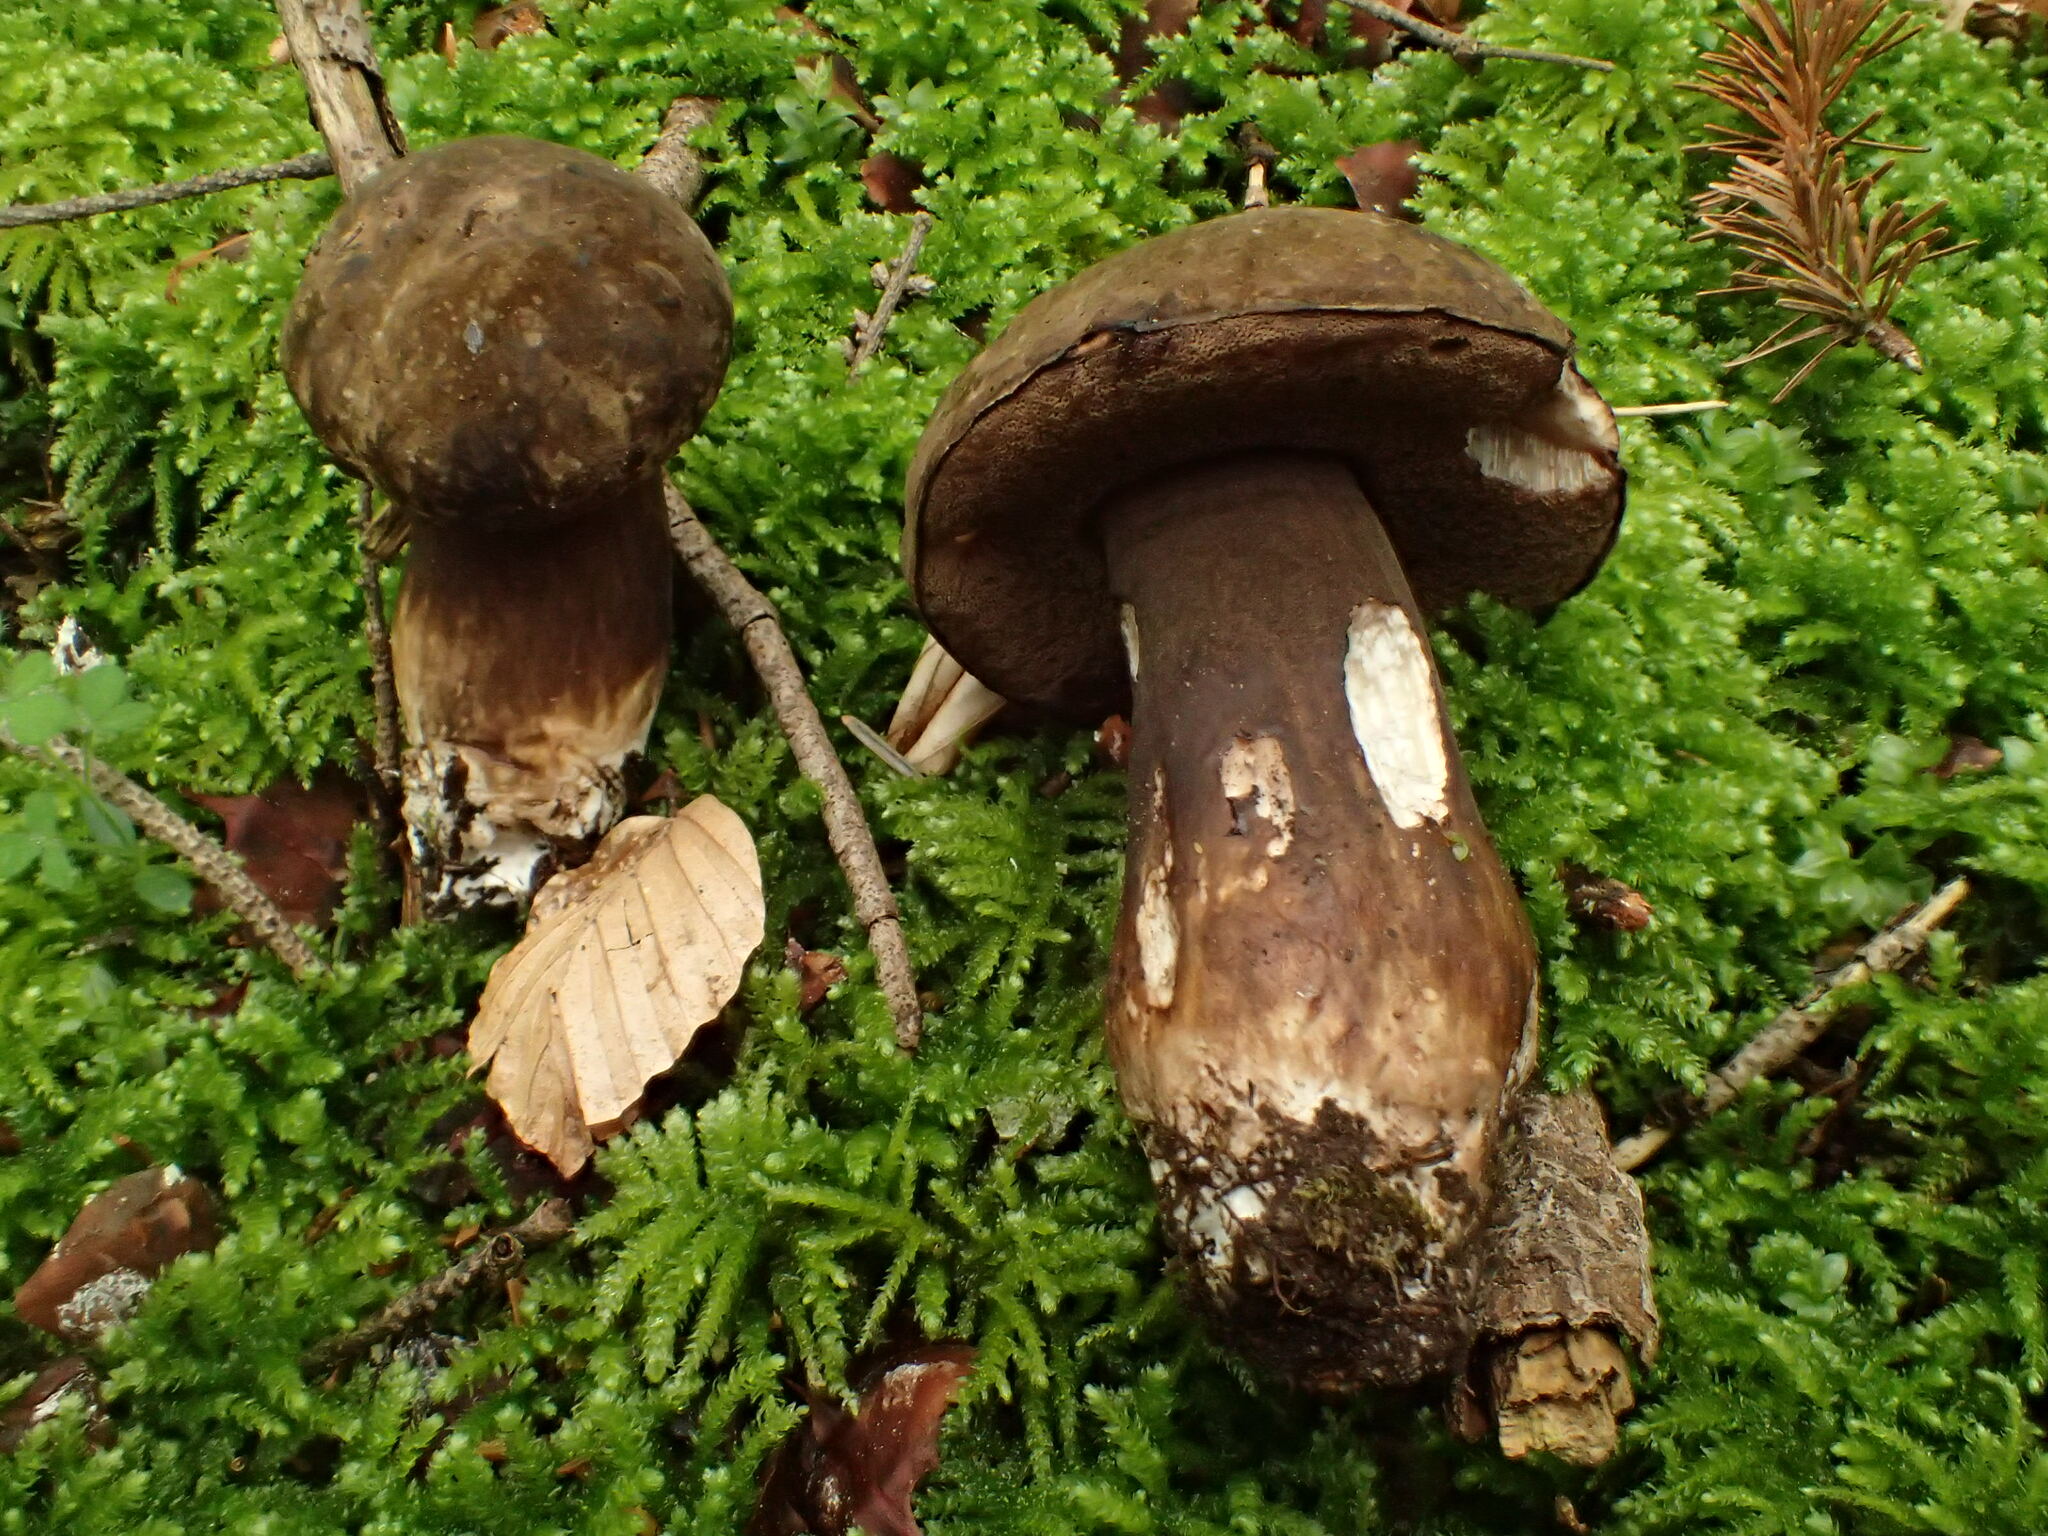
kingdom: Fungi
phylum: Basidiomycota
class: Agaricomycetes
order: Boletales
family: Boletaceae
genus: Porphyrellus
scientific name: Porphyrellus porphyrosporus
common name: Dusky bolete
